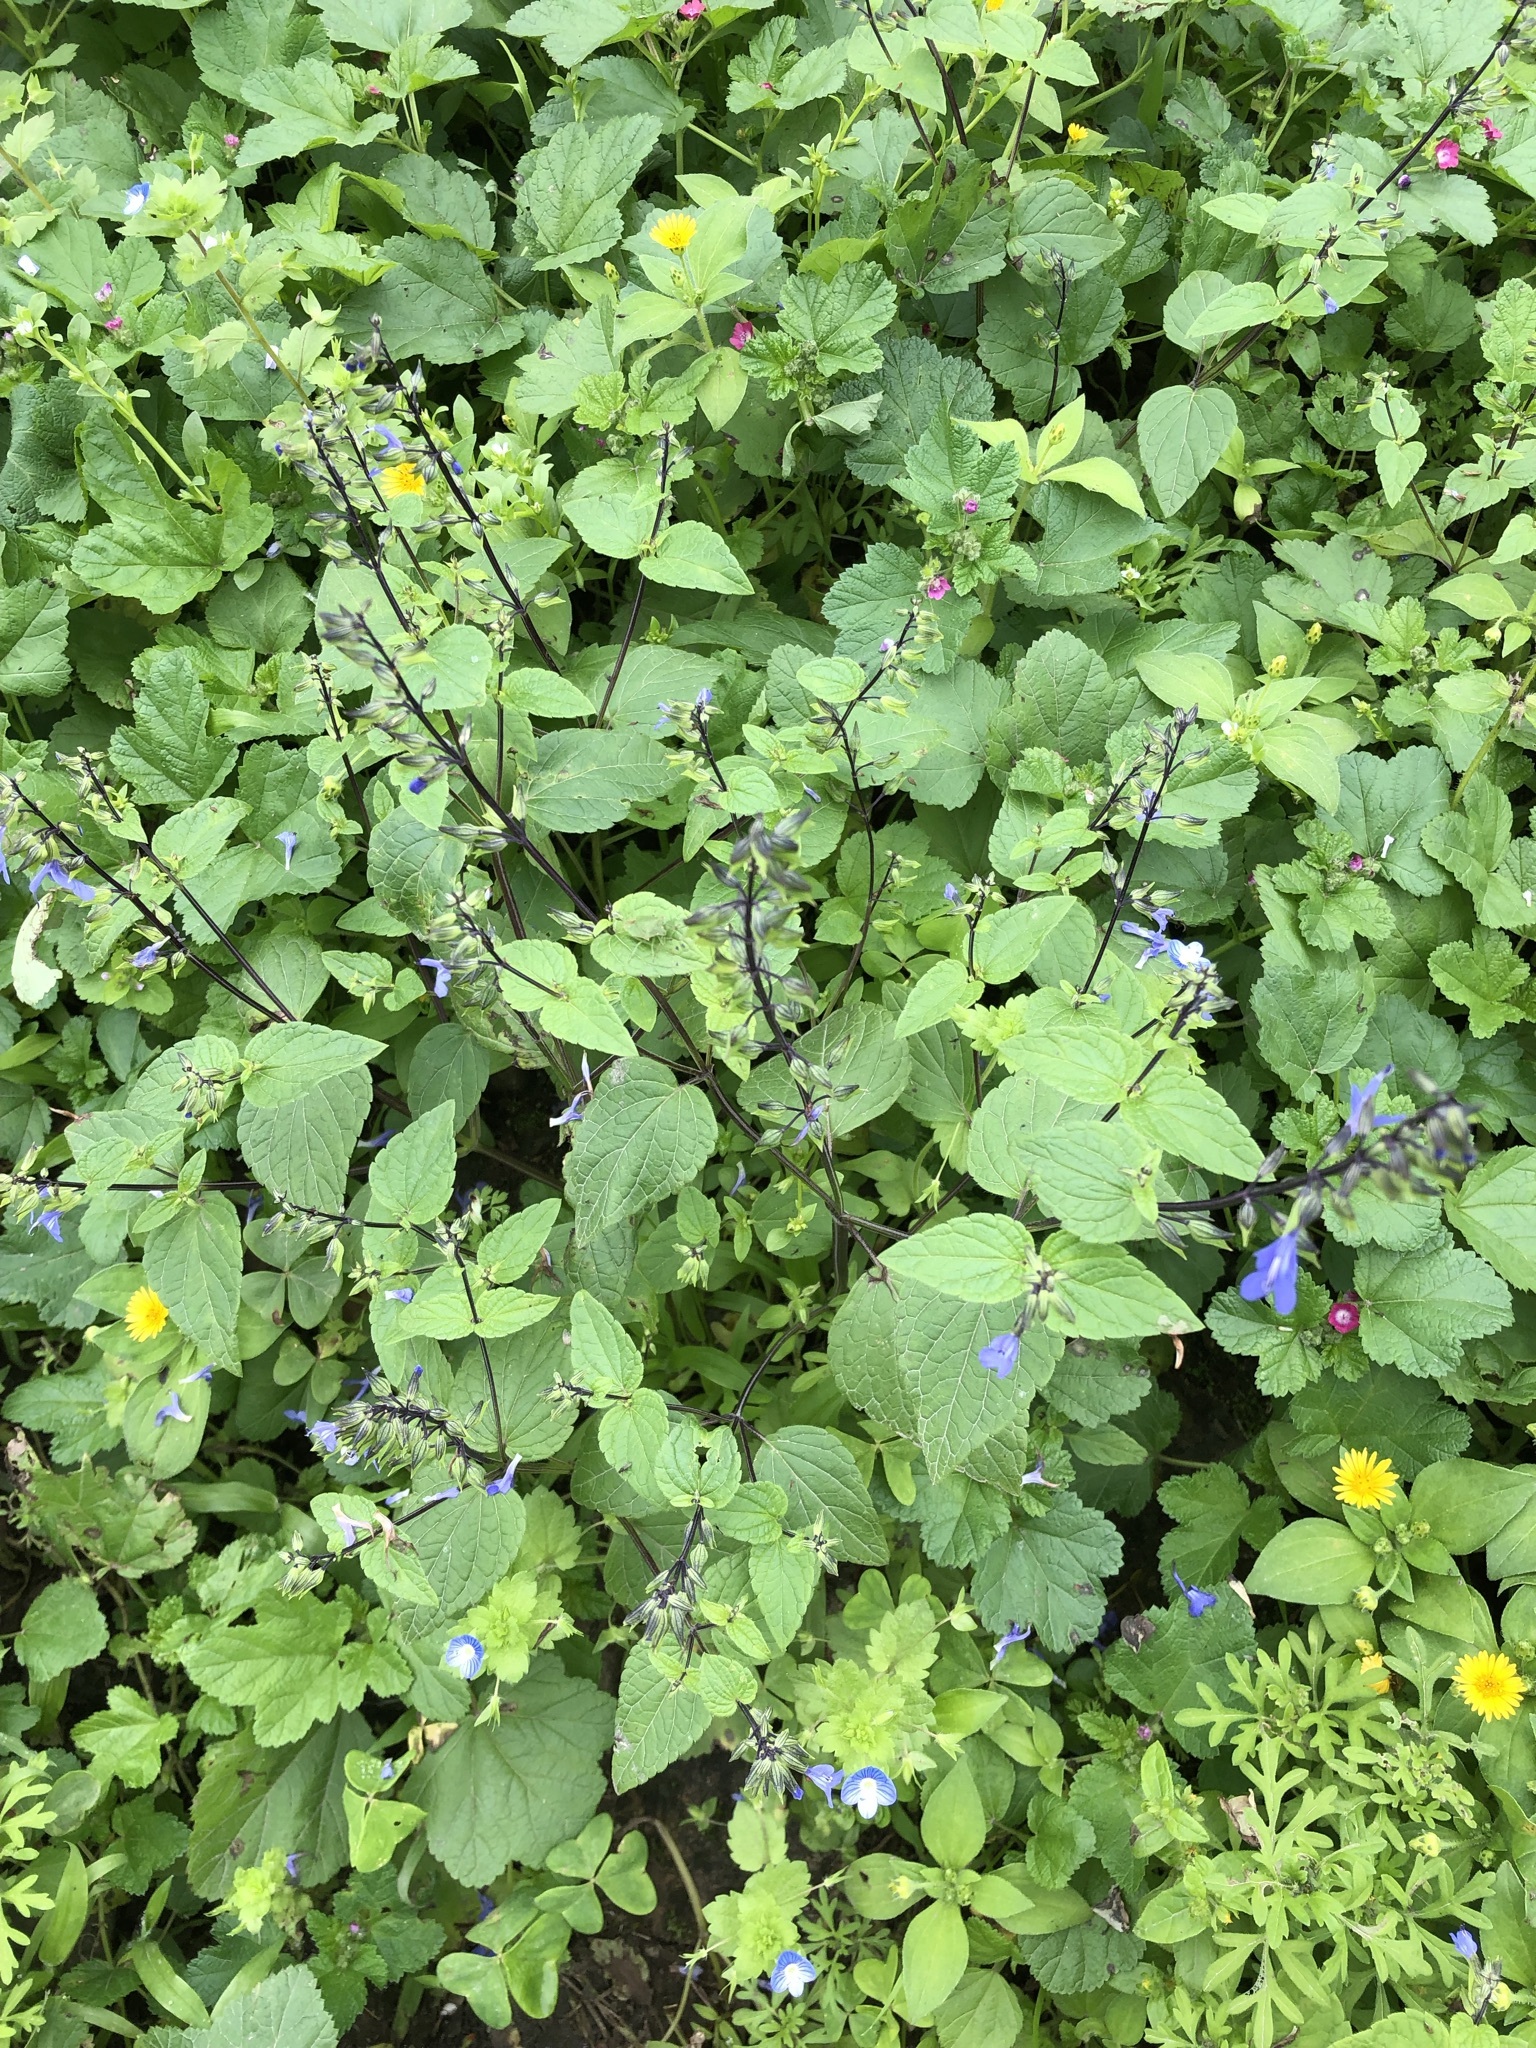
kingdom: Plantae
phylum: Tracheophyta
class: Magnoliopsida
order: Lamiales
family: Lamiaceae
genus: Salvia
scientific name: Salvia rhombifolia
